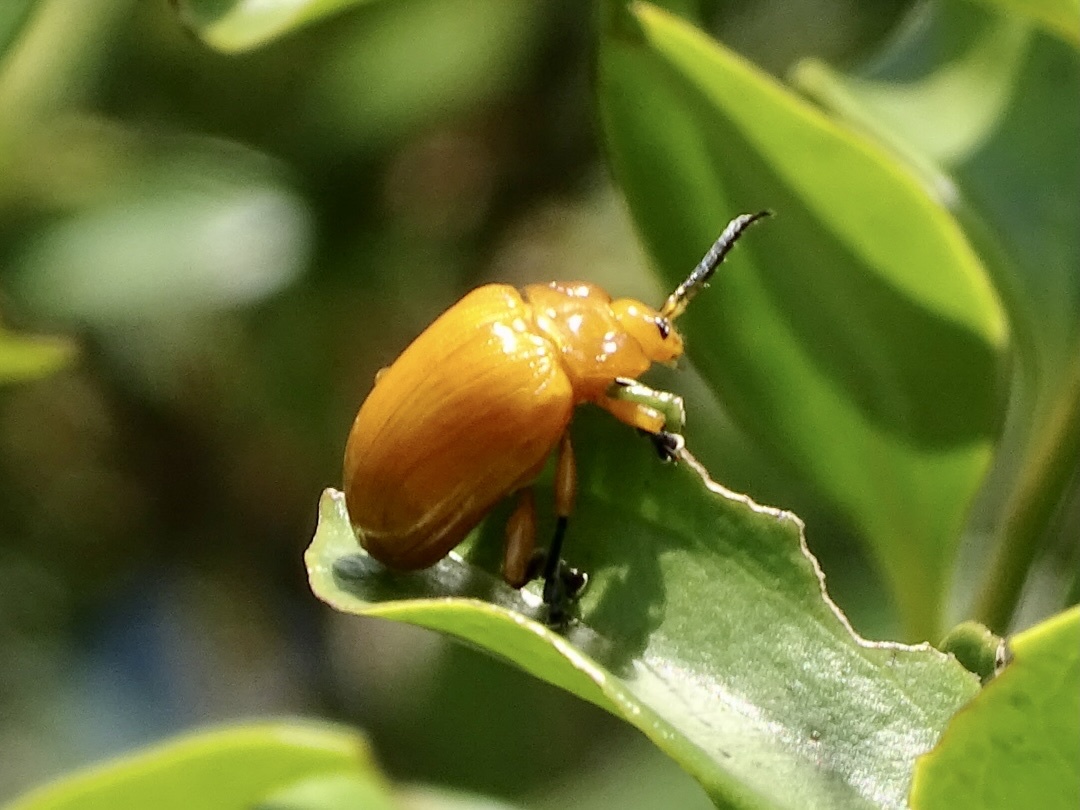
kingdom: Animalia
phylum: Arthropoda
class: Insecta
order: Coleoptera
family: Chrysomelidae
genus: Podontia
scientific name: Podontia lutea
